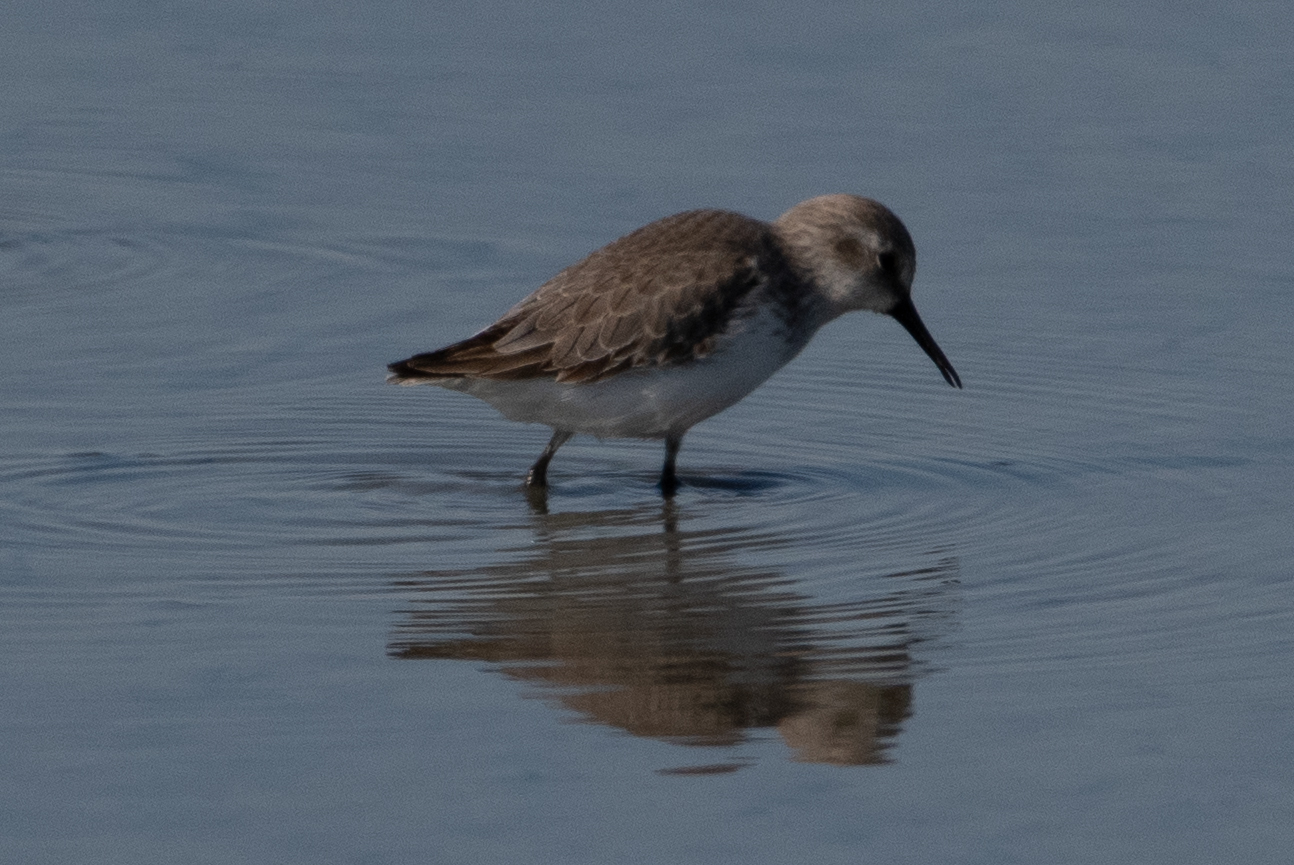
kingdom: Animalia
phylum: Chordata
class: Aves
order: Charadriiformes
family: Scolopacidae
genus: Calidris
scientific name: Calidris mauri
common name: Western sandpiper
